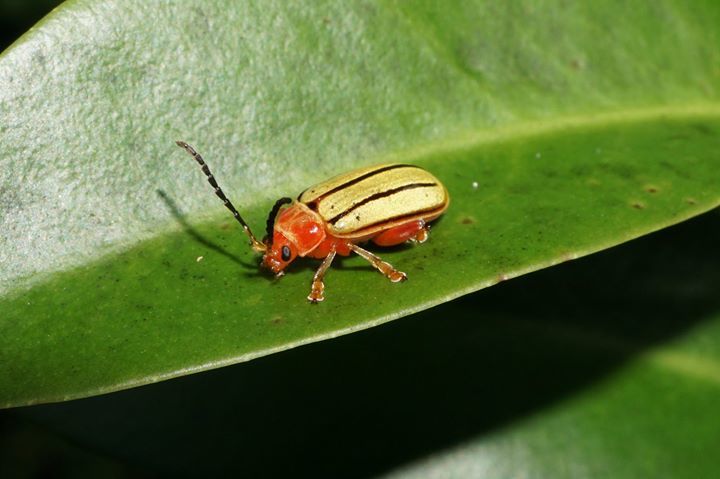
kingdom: Animalia
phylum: Arthropoda
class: Insecta
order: Coleoptera
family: Chrysomelidae
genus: Disonycha
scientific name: Disonycha
